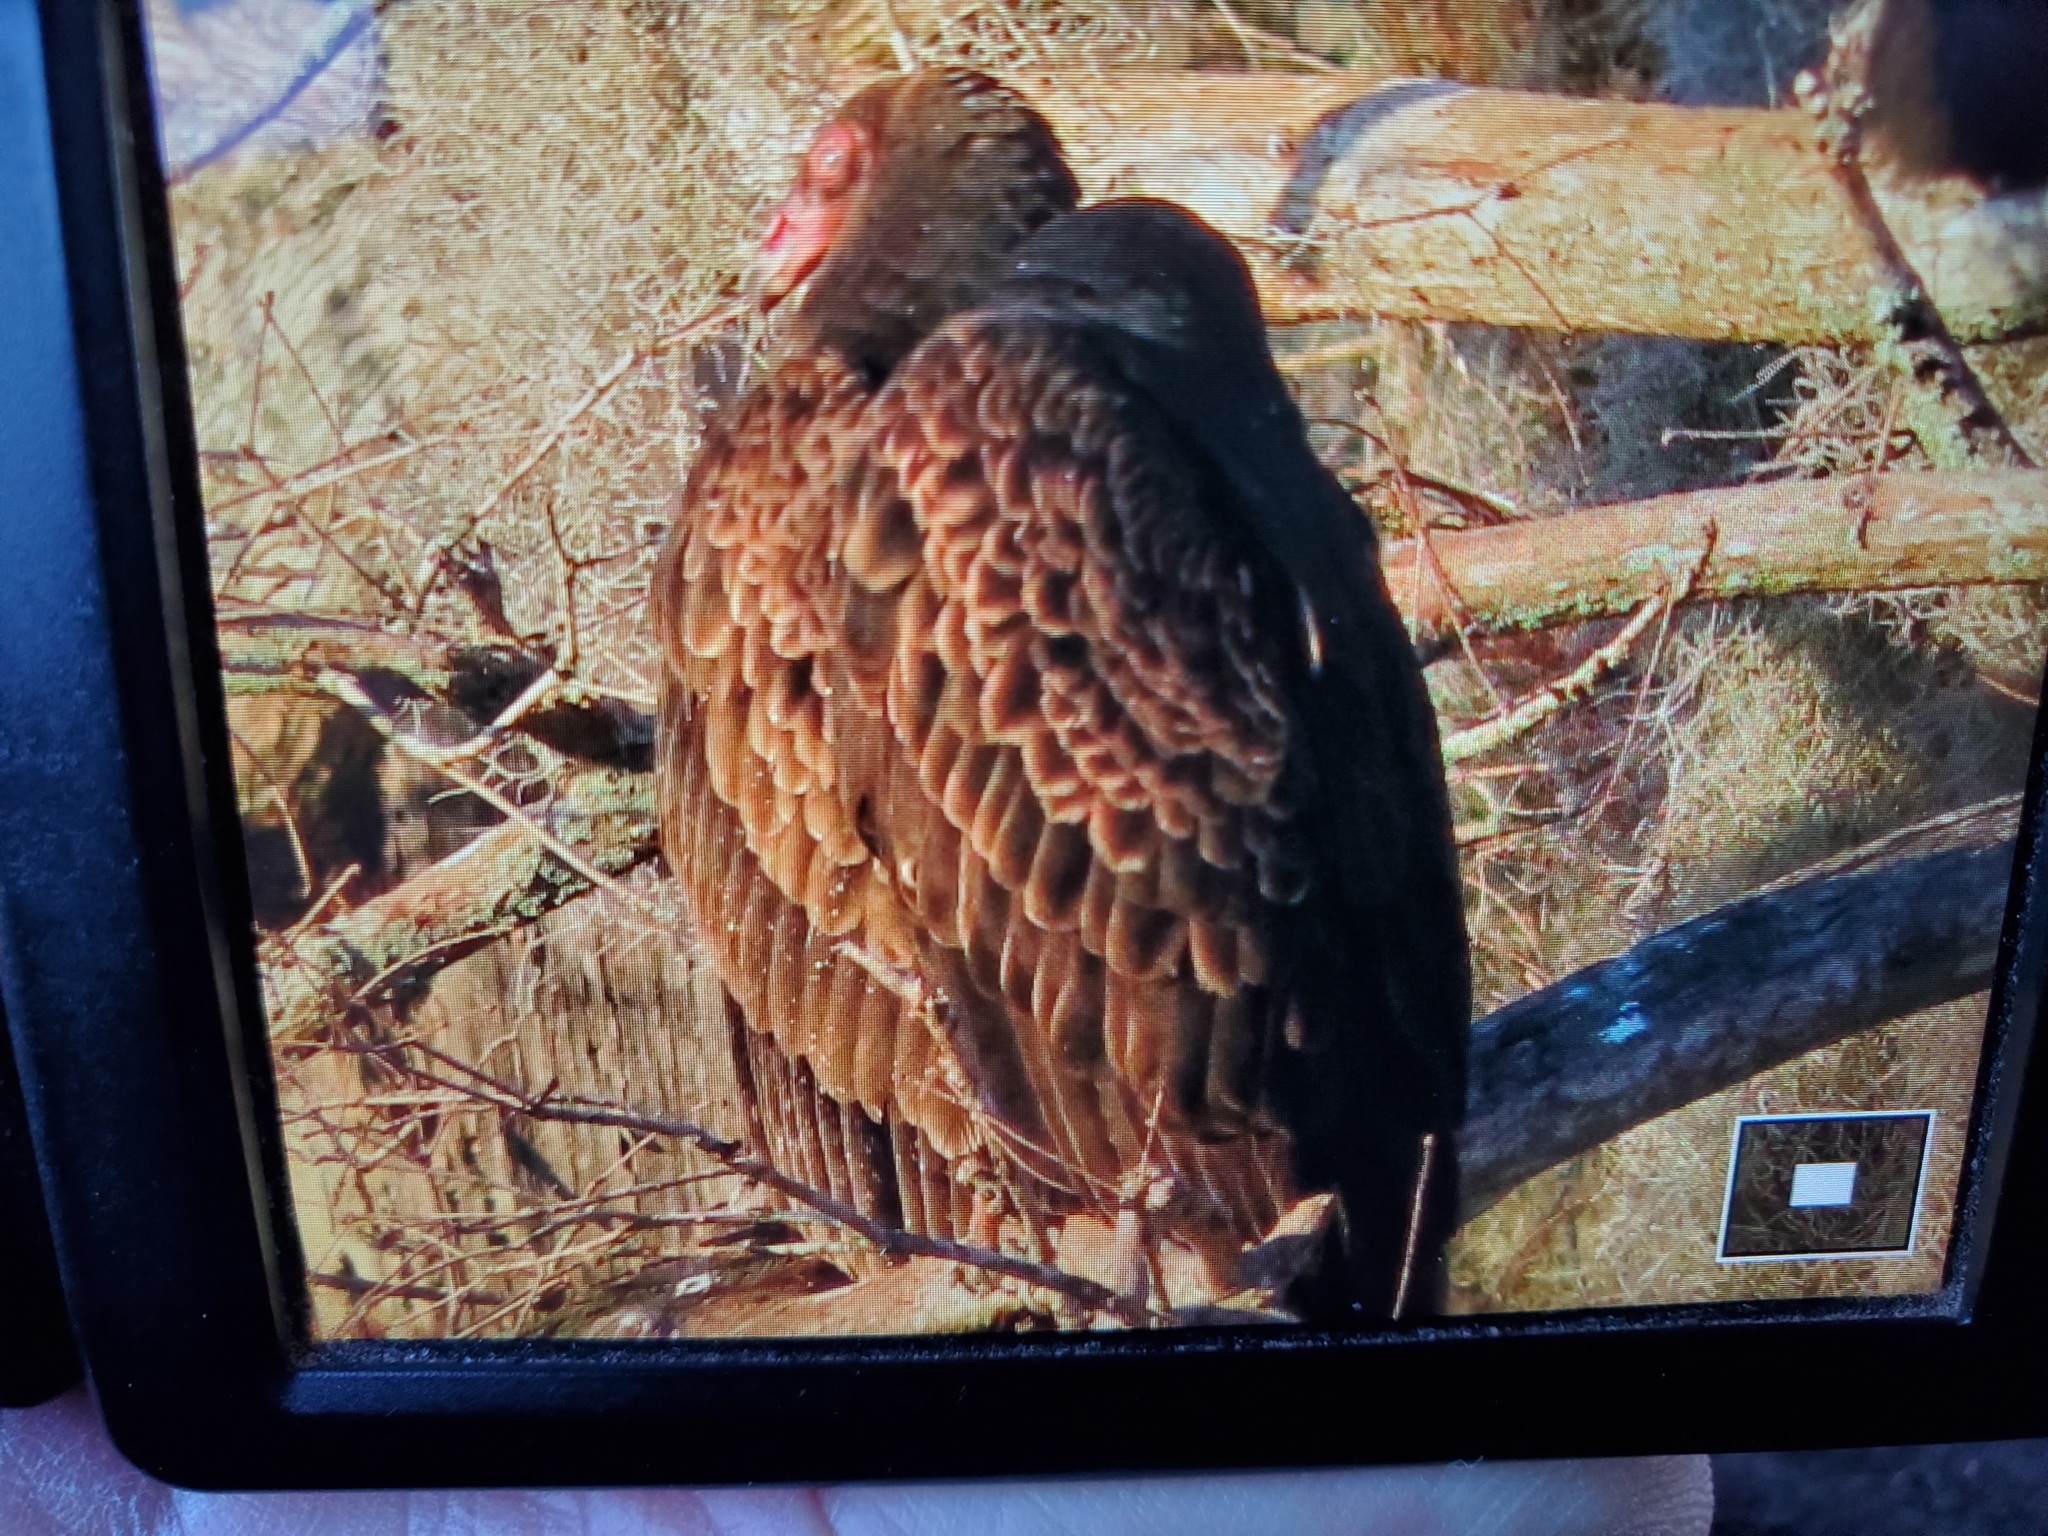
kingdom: Animalia
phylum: Chordata
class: Aves
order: Accipitriformes
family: Cathartidae
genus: Cathartes
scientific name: Cathartes aura
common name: Turkey vulture
